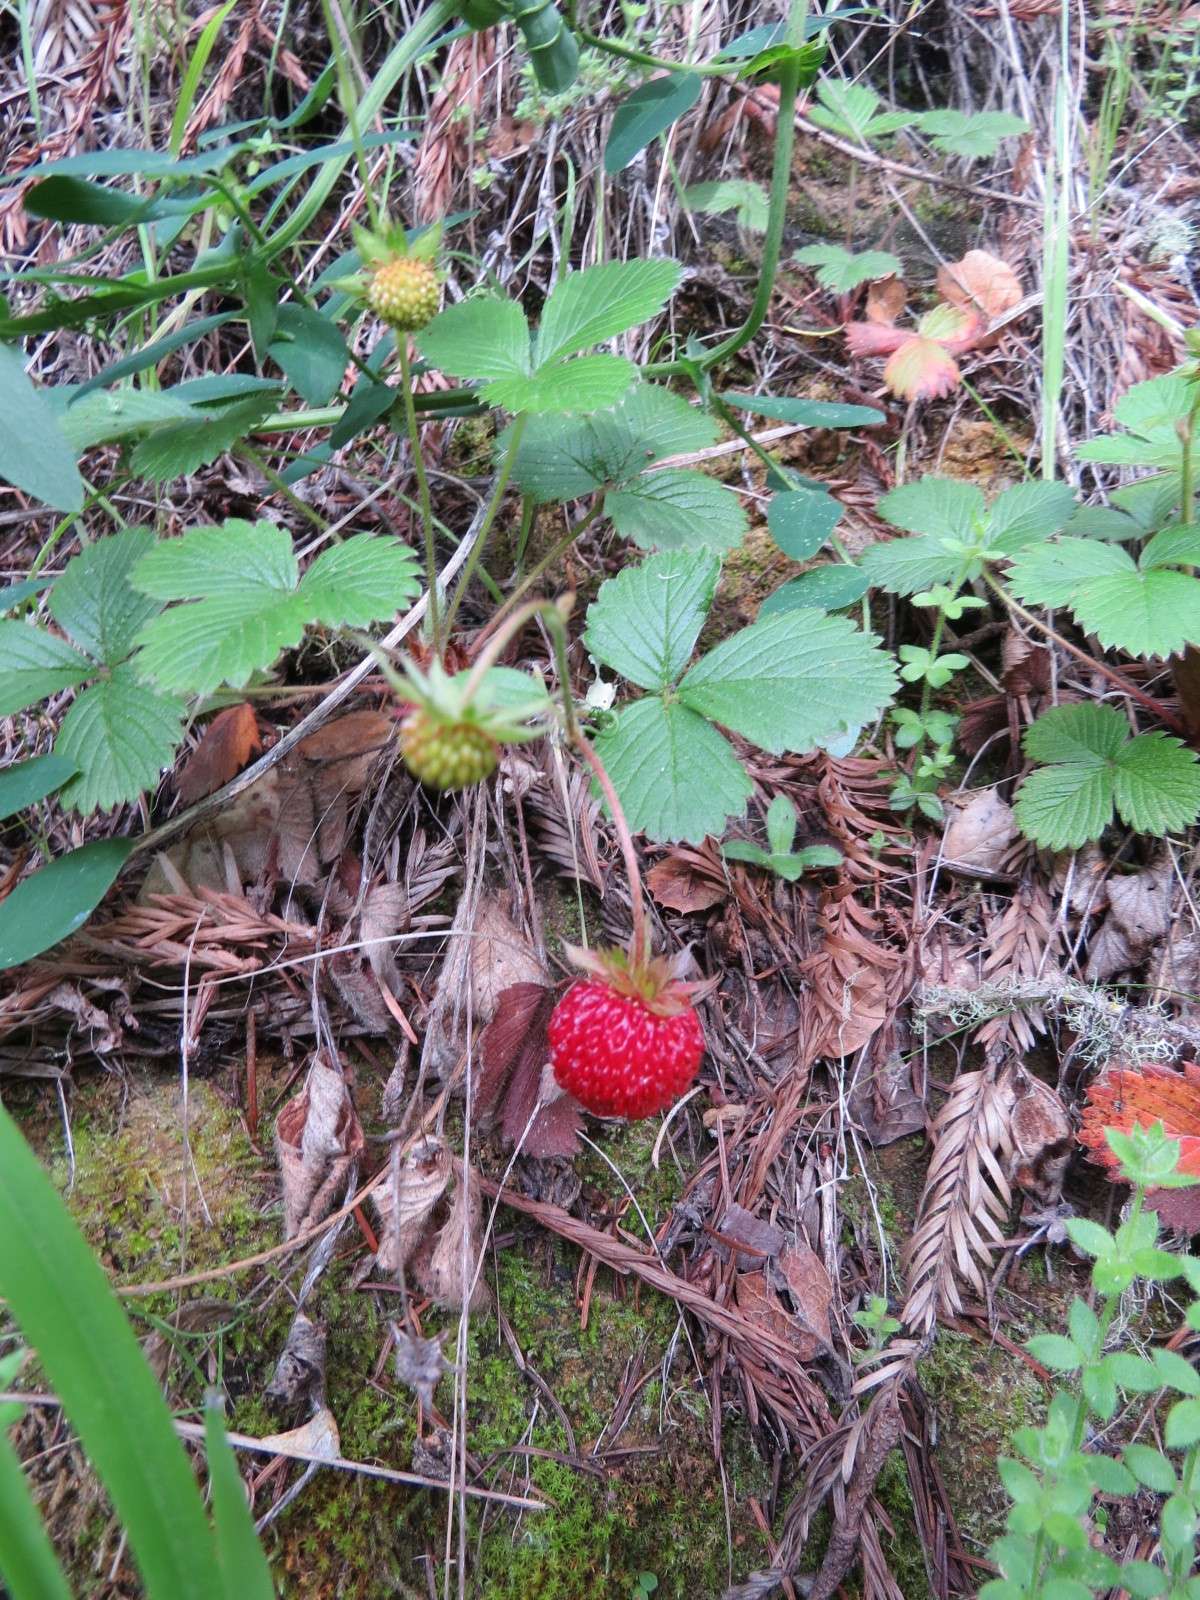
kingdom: Plantae
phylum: Tracheophyta
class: Magnoliopsida
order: Rosales
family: Rosaceae
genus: Fragaria
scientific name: Fragaria vesca
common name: Wild strawberry
